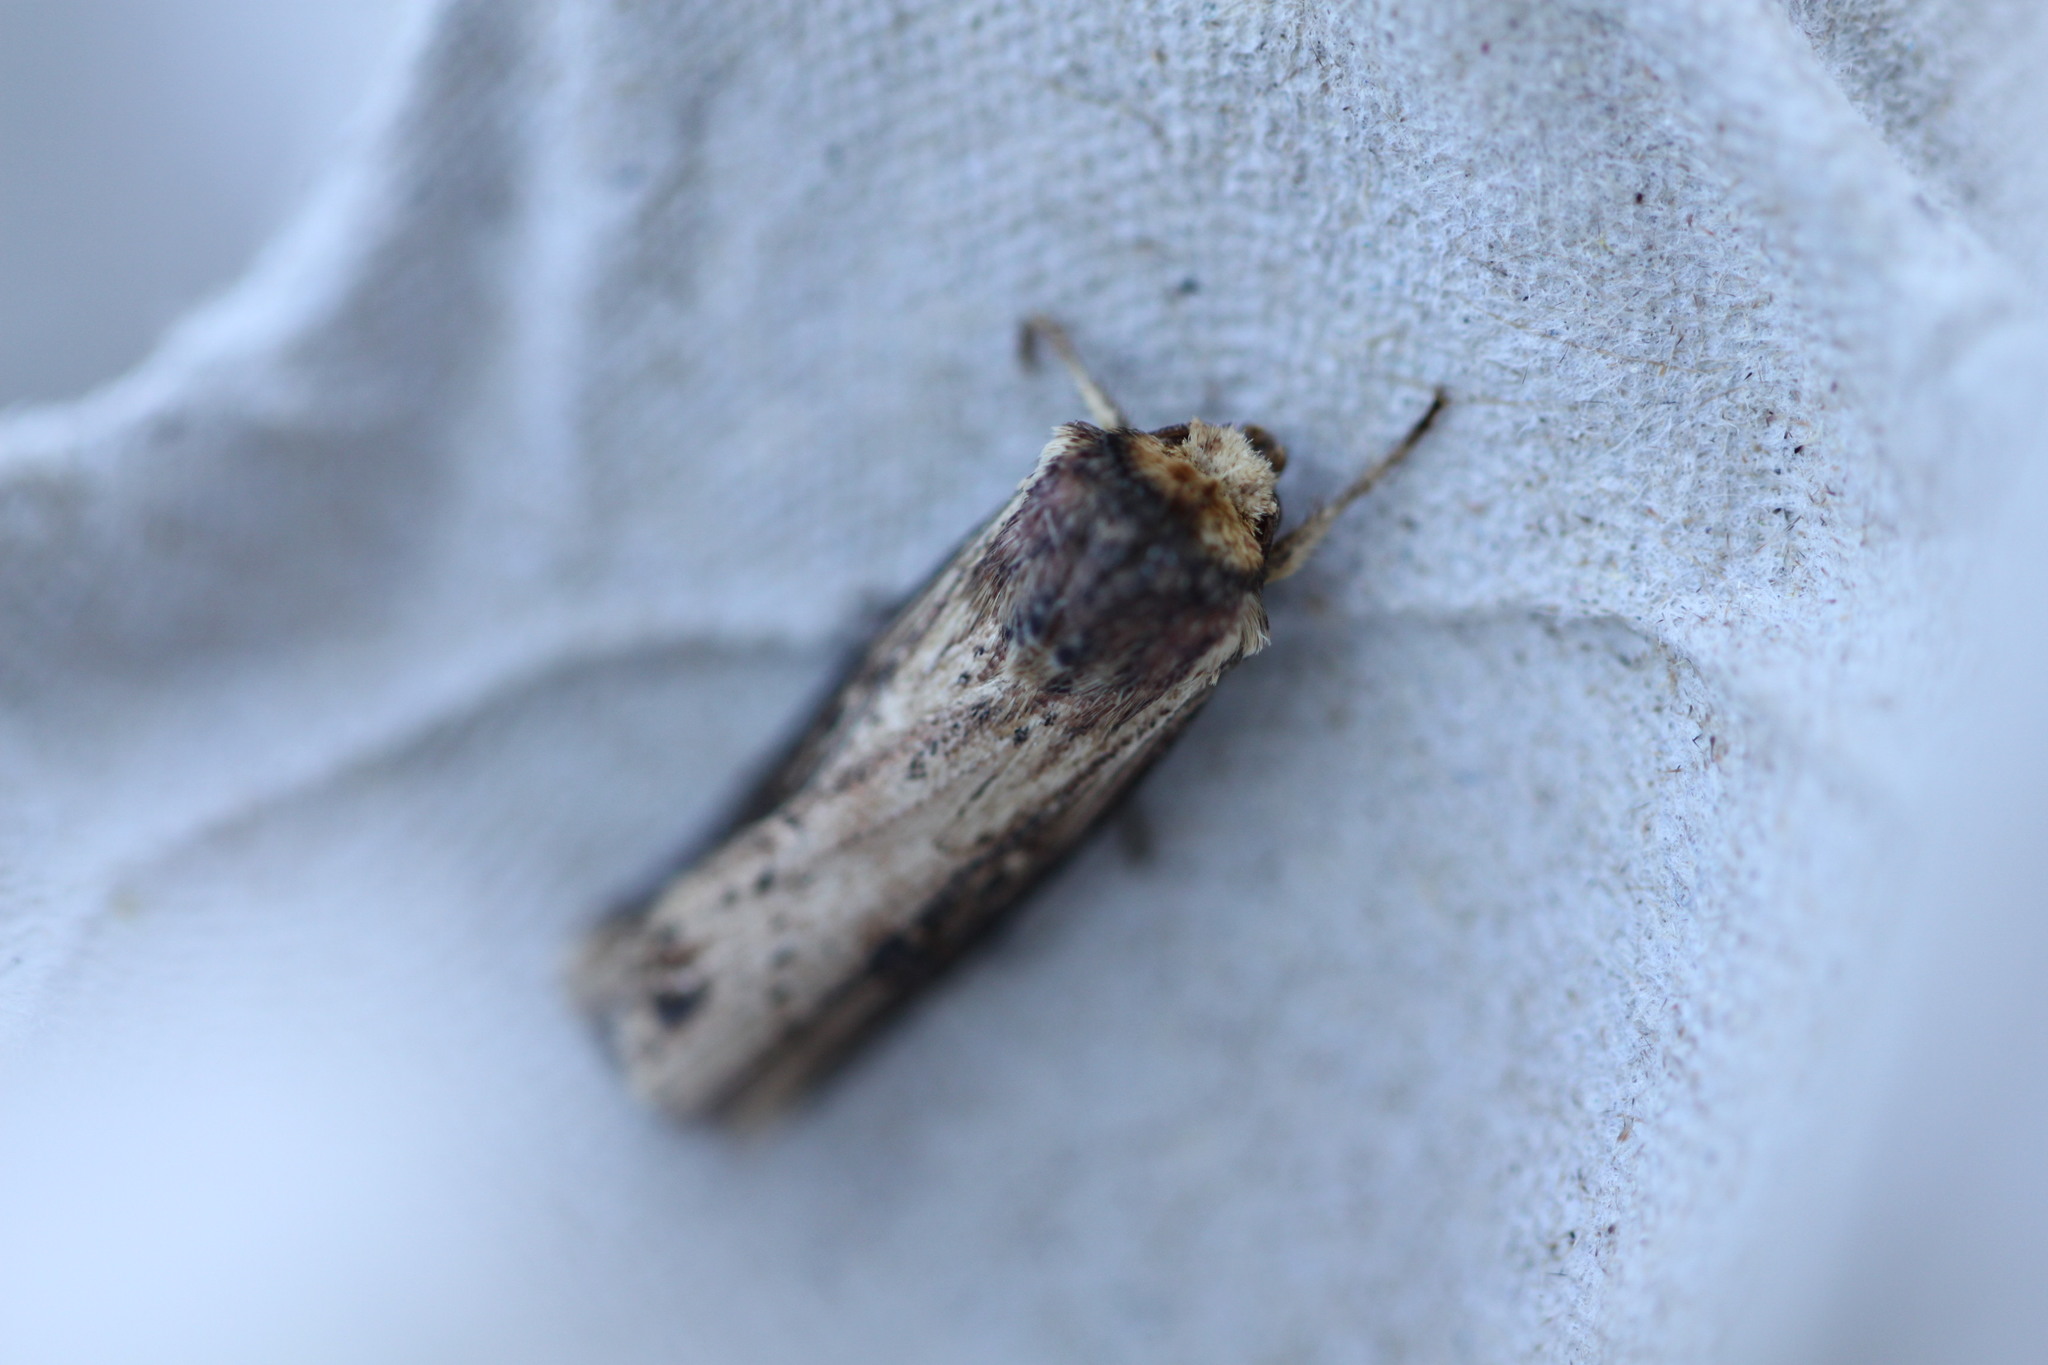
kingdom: Animalia
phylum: Arthropoda
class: Insecta
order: Lepidoptera
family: Noctuidae
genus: Axylia
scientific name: Axylia putris
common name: Flame
